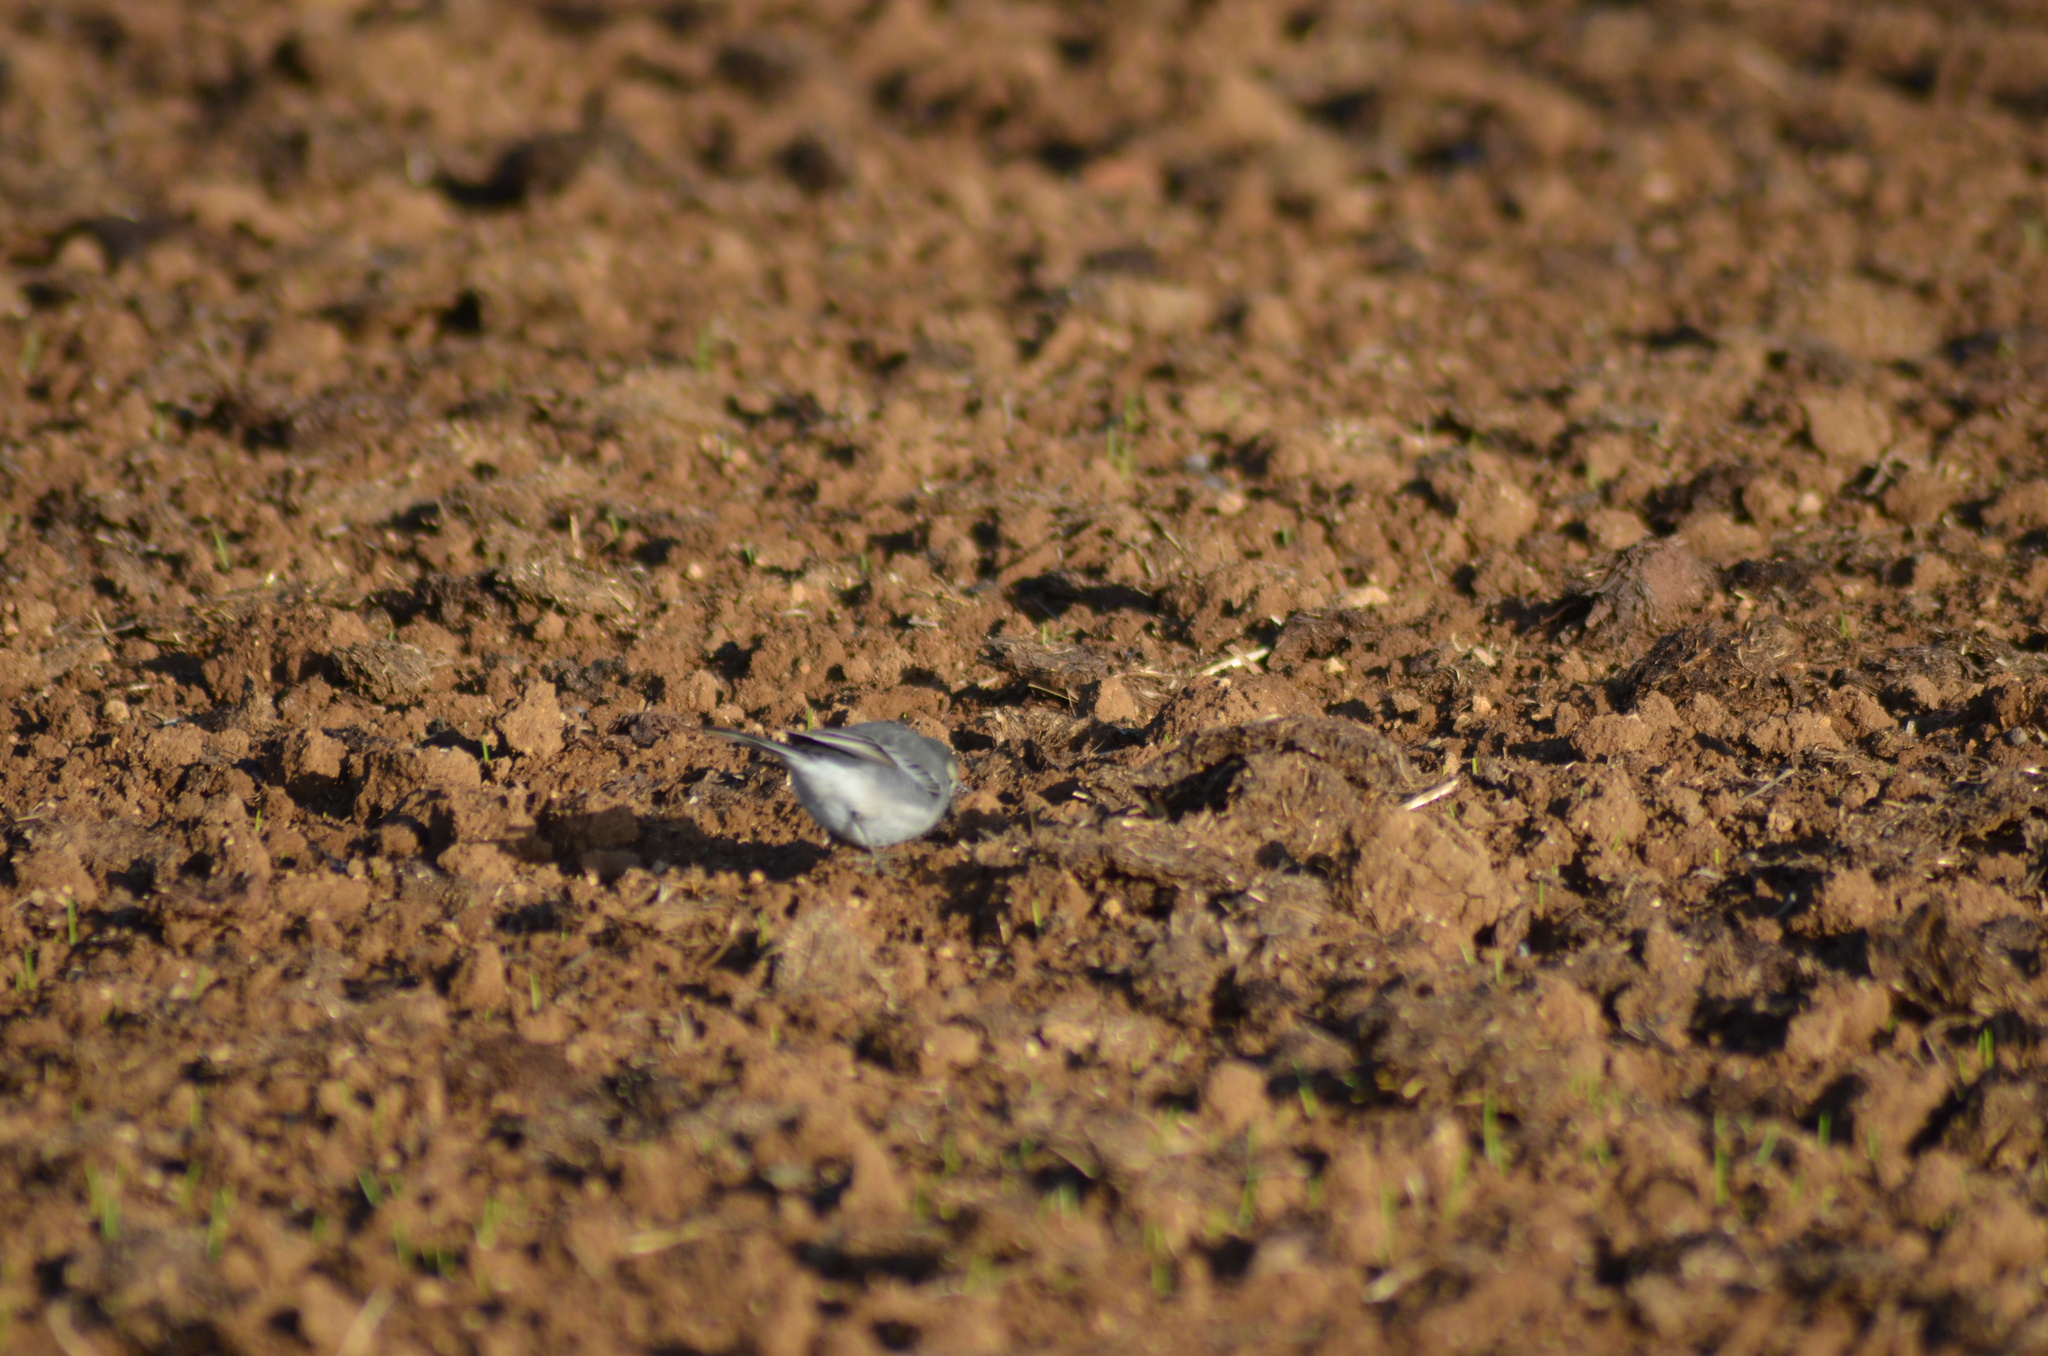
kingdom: Animalia
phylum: Chordata
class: Aves
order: Passeriformes
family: Motacillidae
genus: Motacilla
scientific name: Motacilla alba
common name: White wagtail
